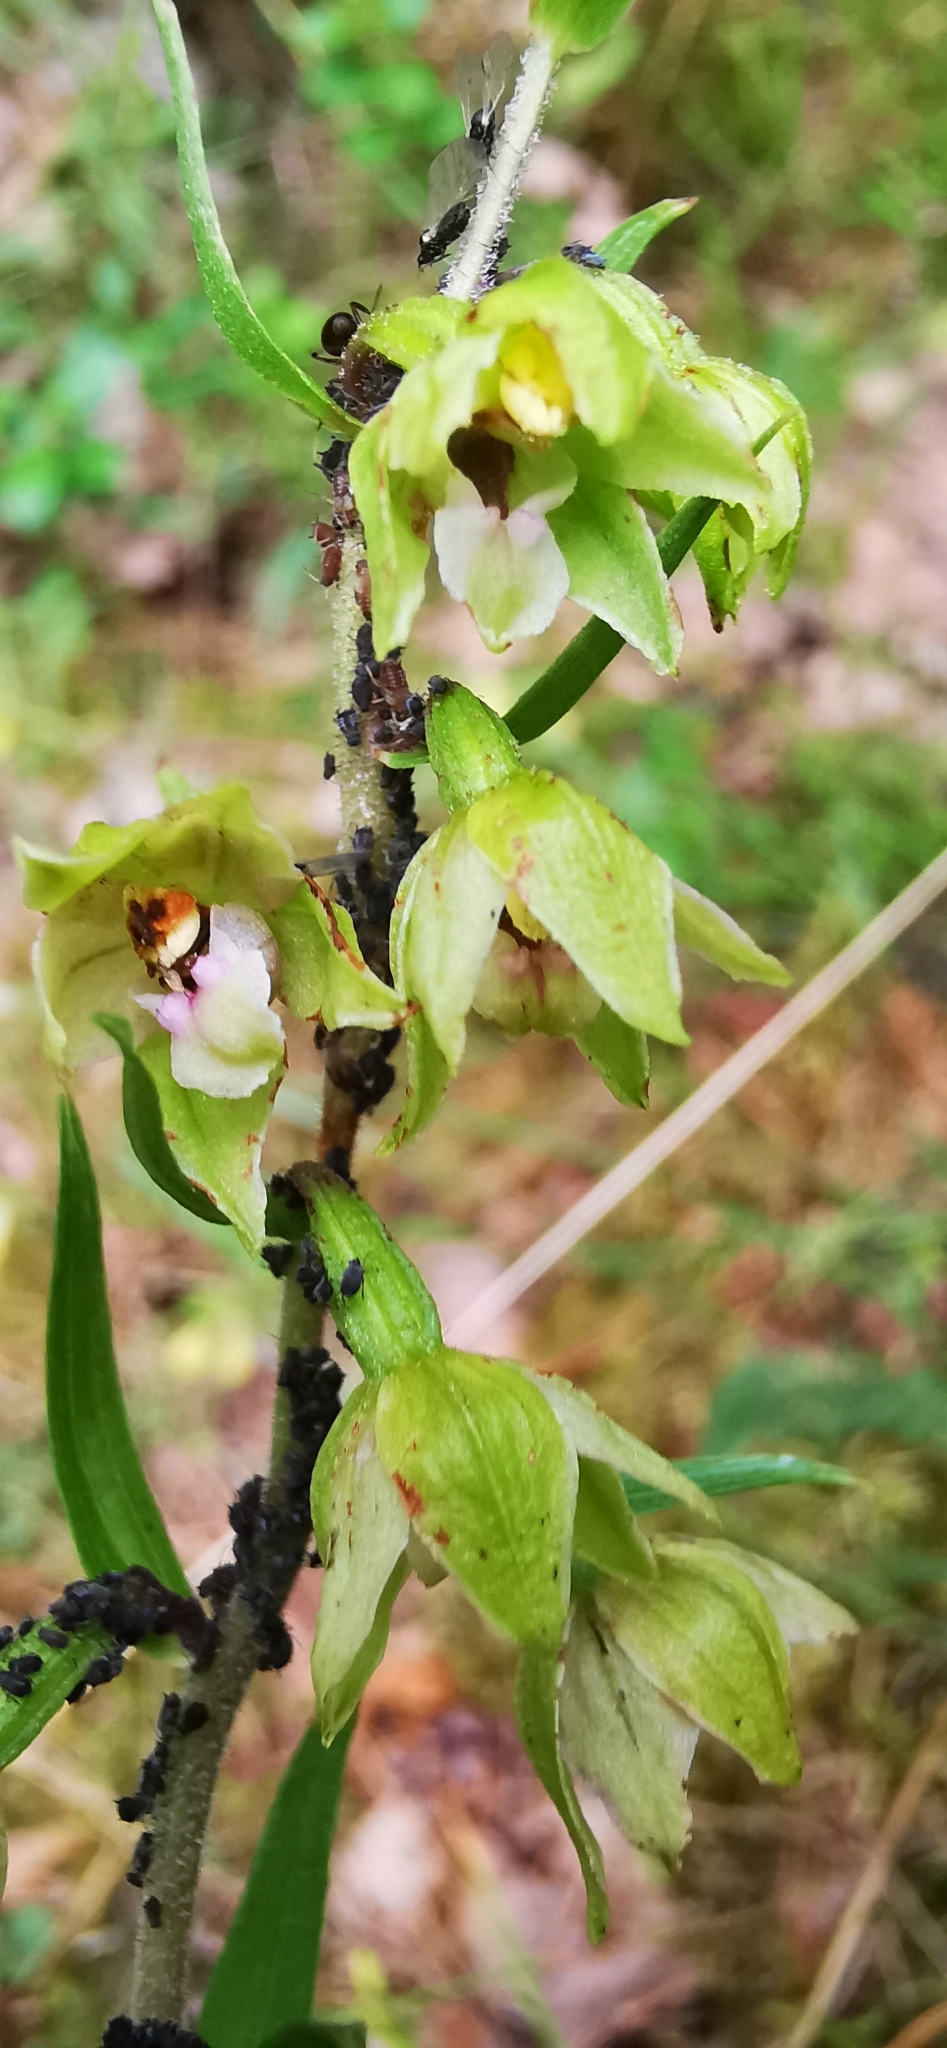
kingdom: Plantae
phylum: Tracheophyta
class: Liliopsida
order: Asparagales
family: Orchidaceae
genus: Epipactis
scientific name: Epipactis helleborine
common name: Broad-leaved helleborine
